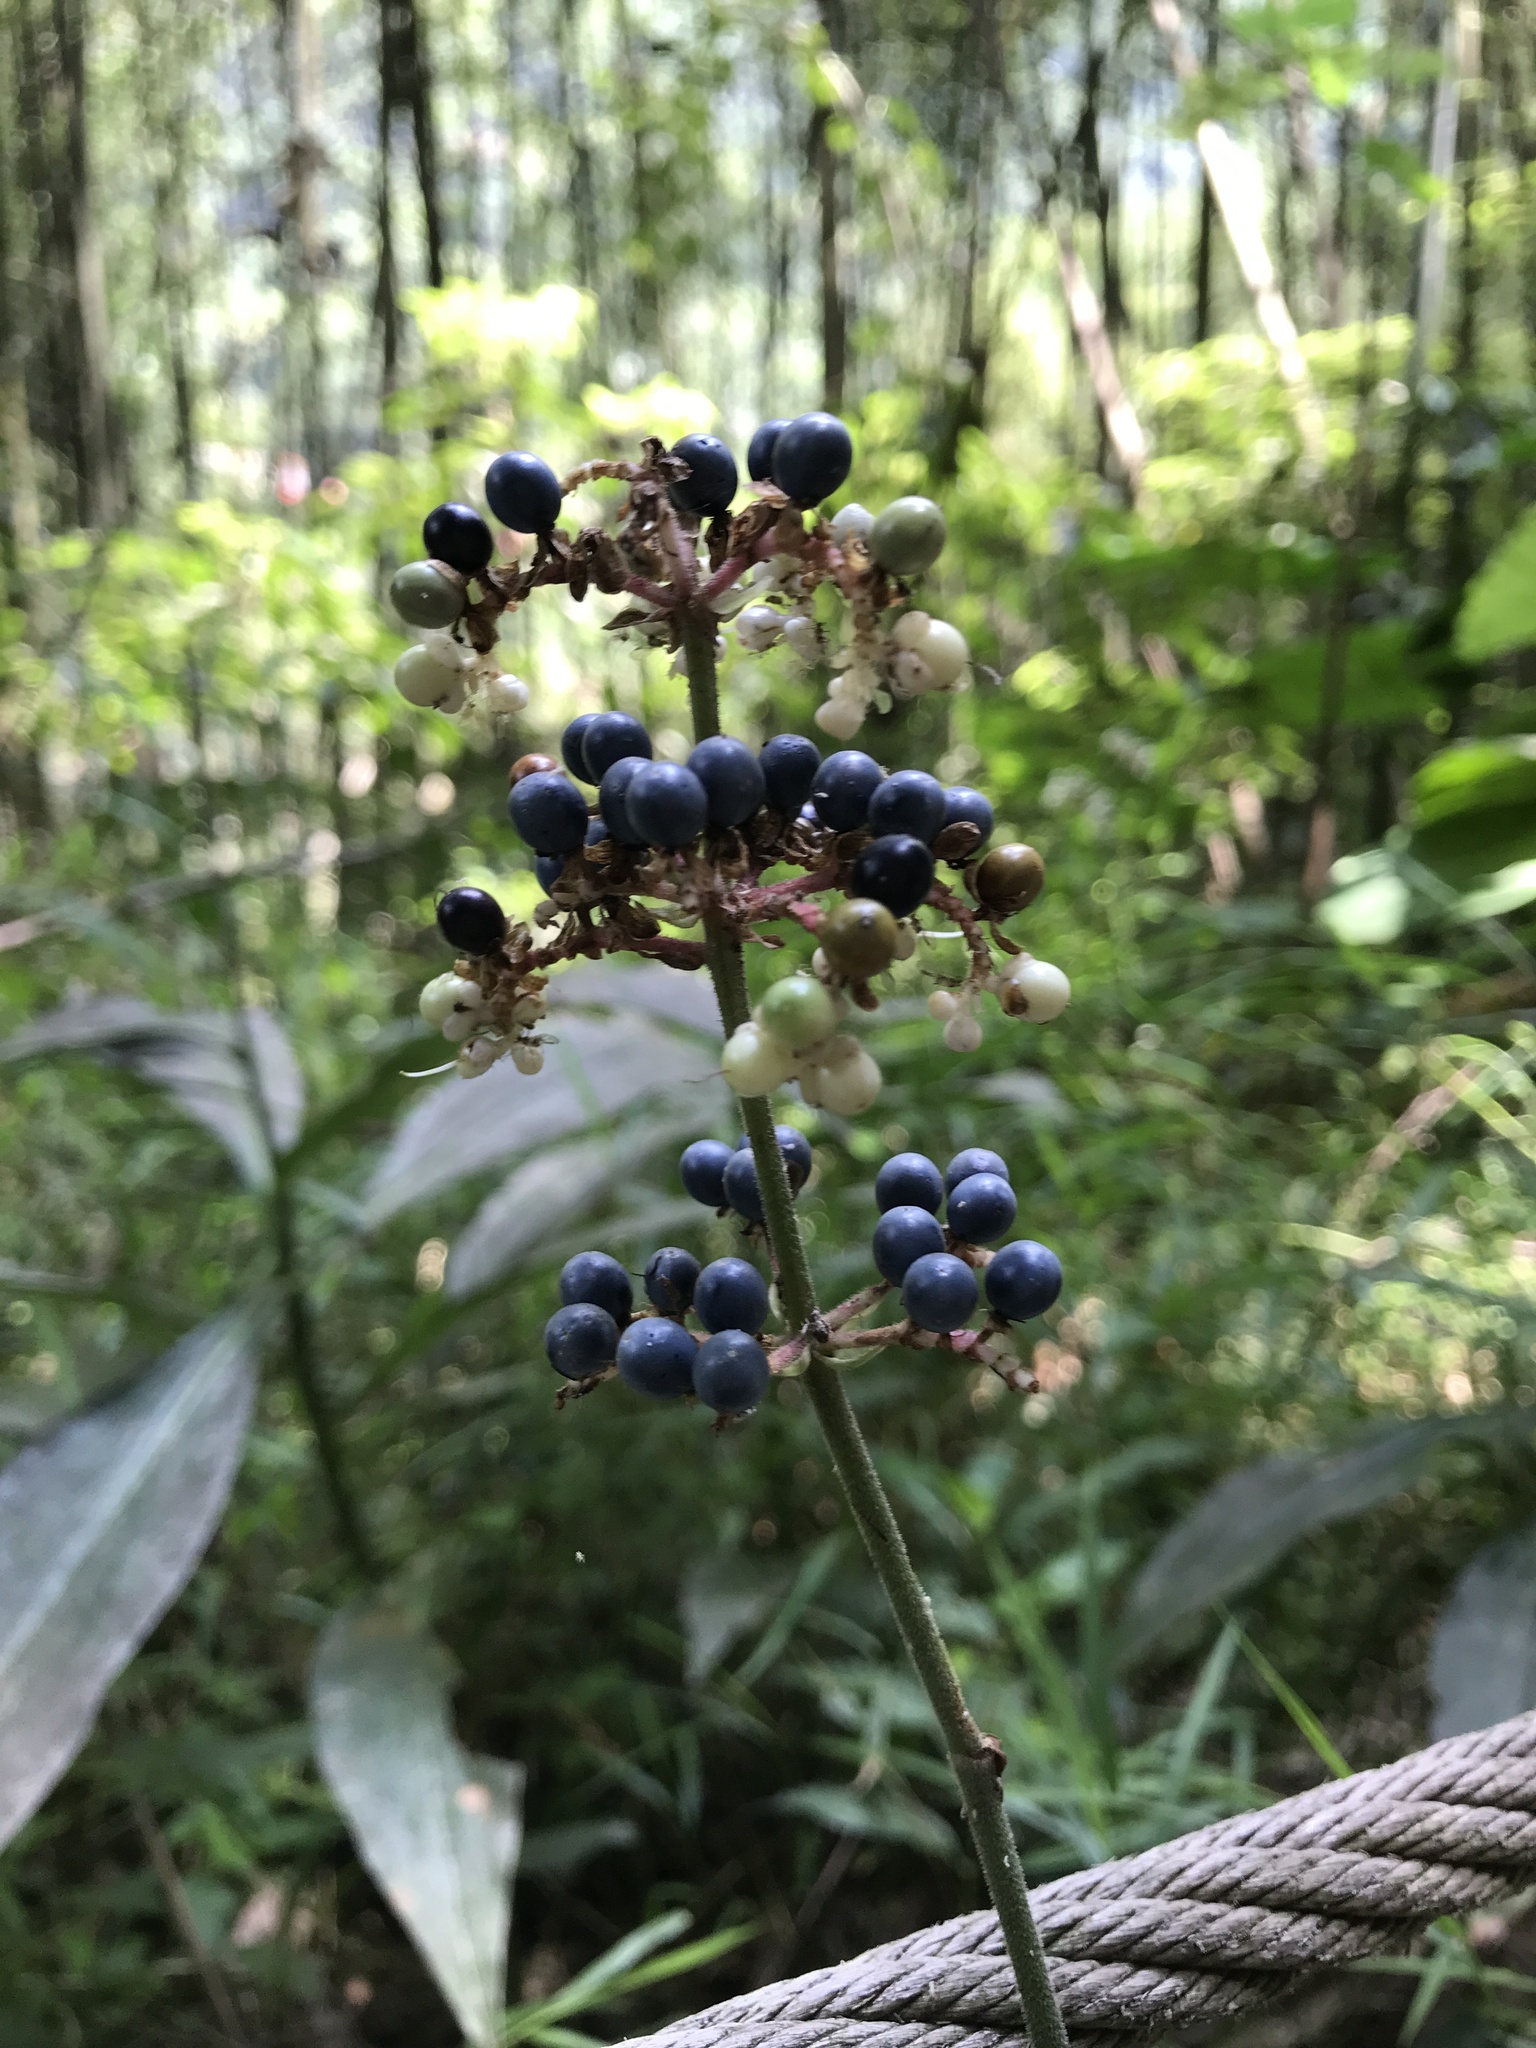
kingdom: Plantae
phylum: Tracheophyta
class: Liliopsida
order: Commelinales
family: Commelinaceae
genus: Pollia
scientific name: Pollia japonica
